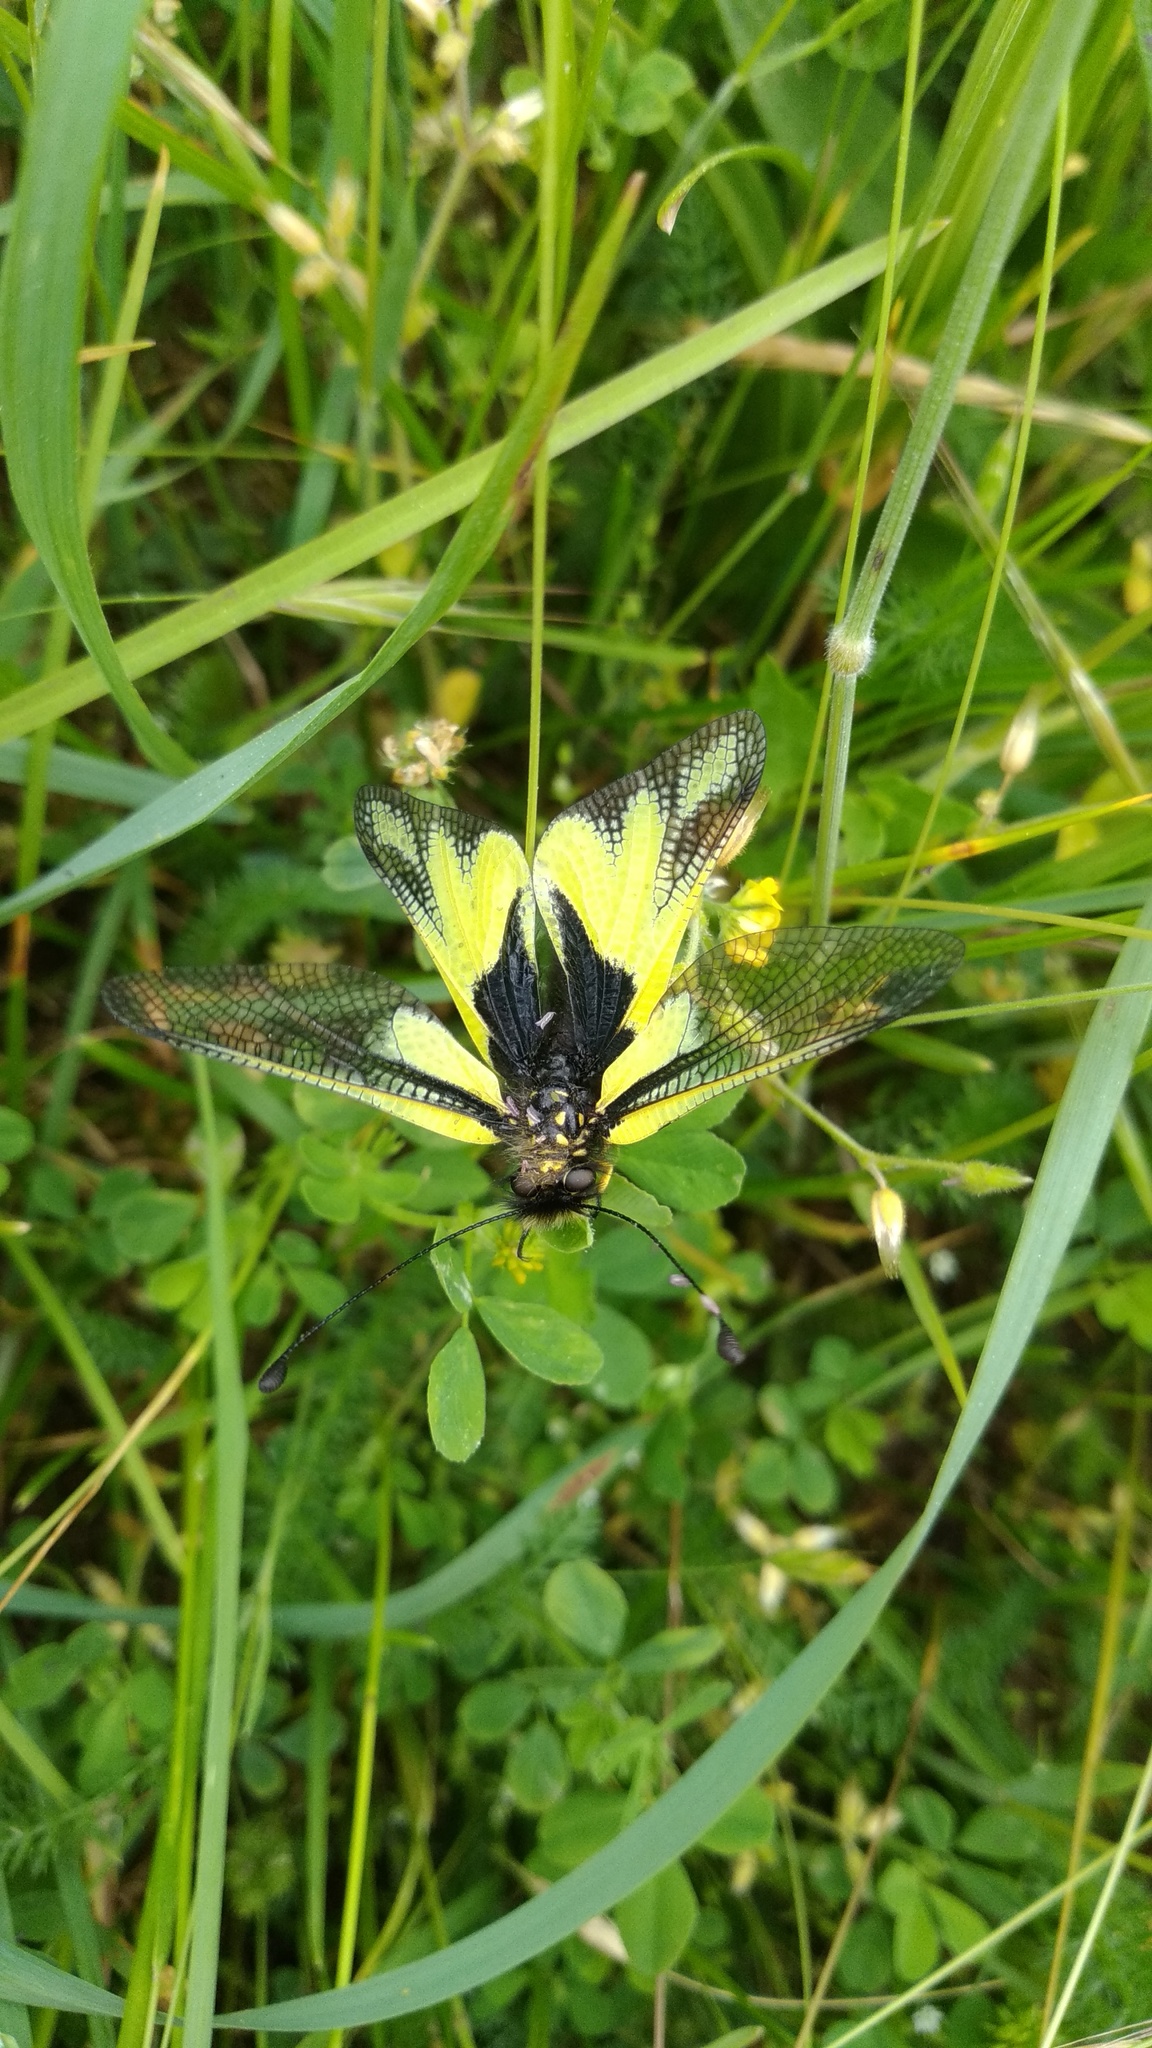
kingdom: Animalia
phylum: Arthropoda
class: Insecta
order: Neuroptera
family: Ascalaphidae
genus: Libelloides
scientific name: Libelloides coccajus
